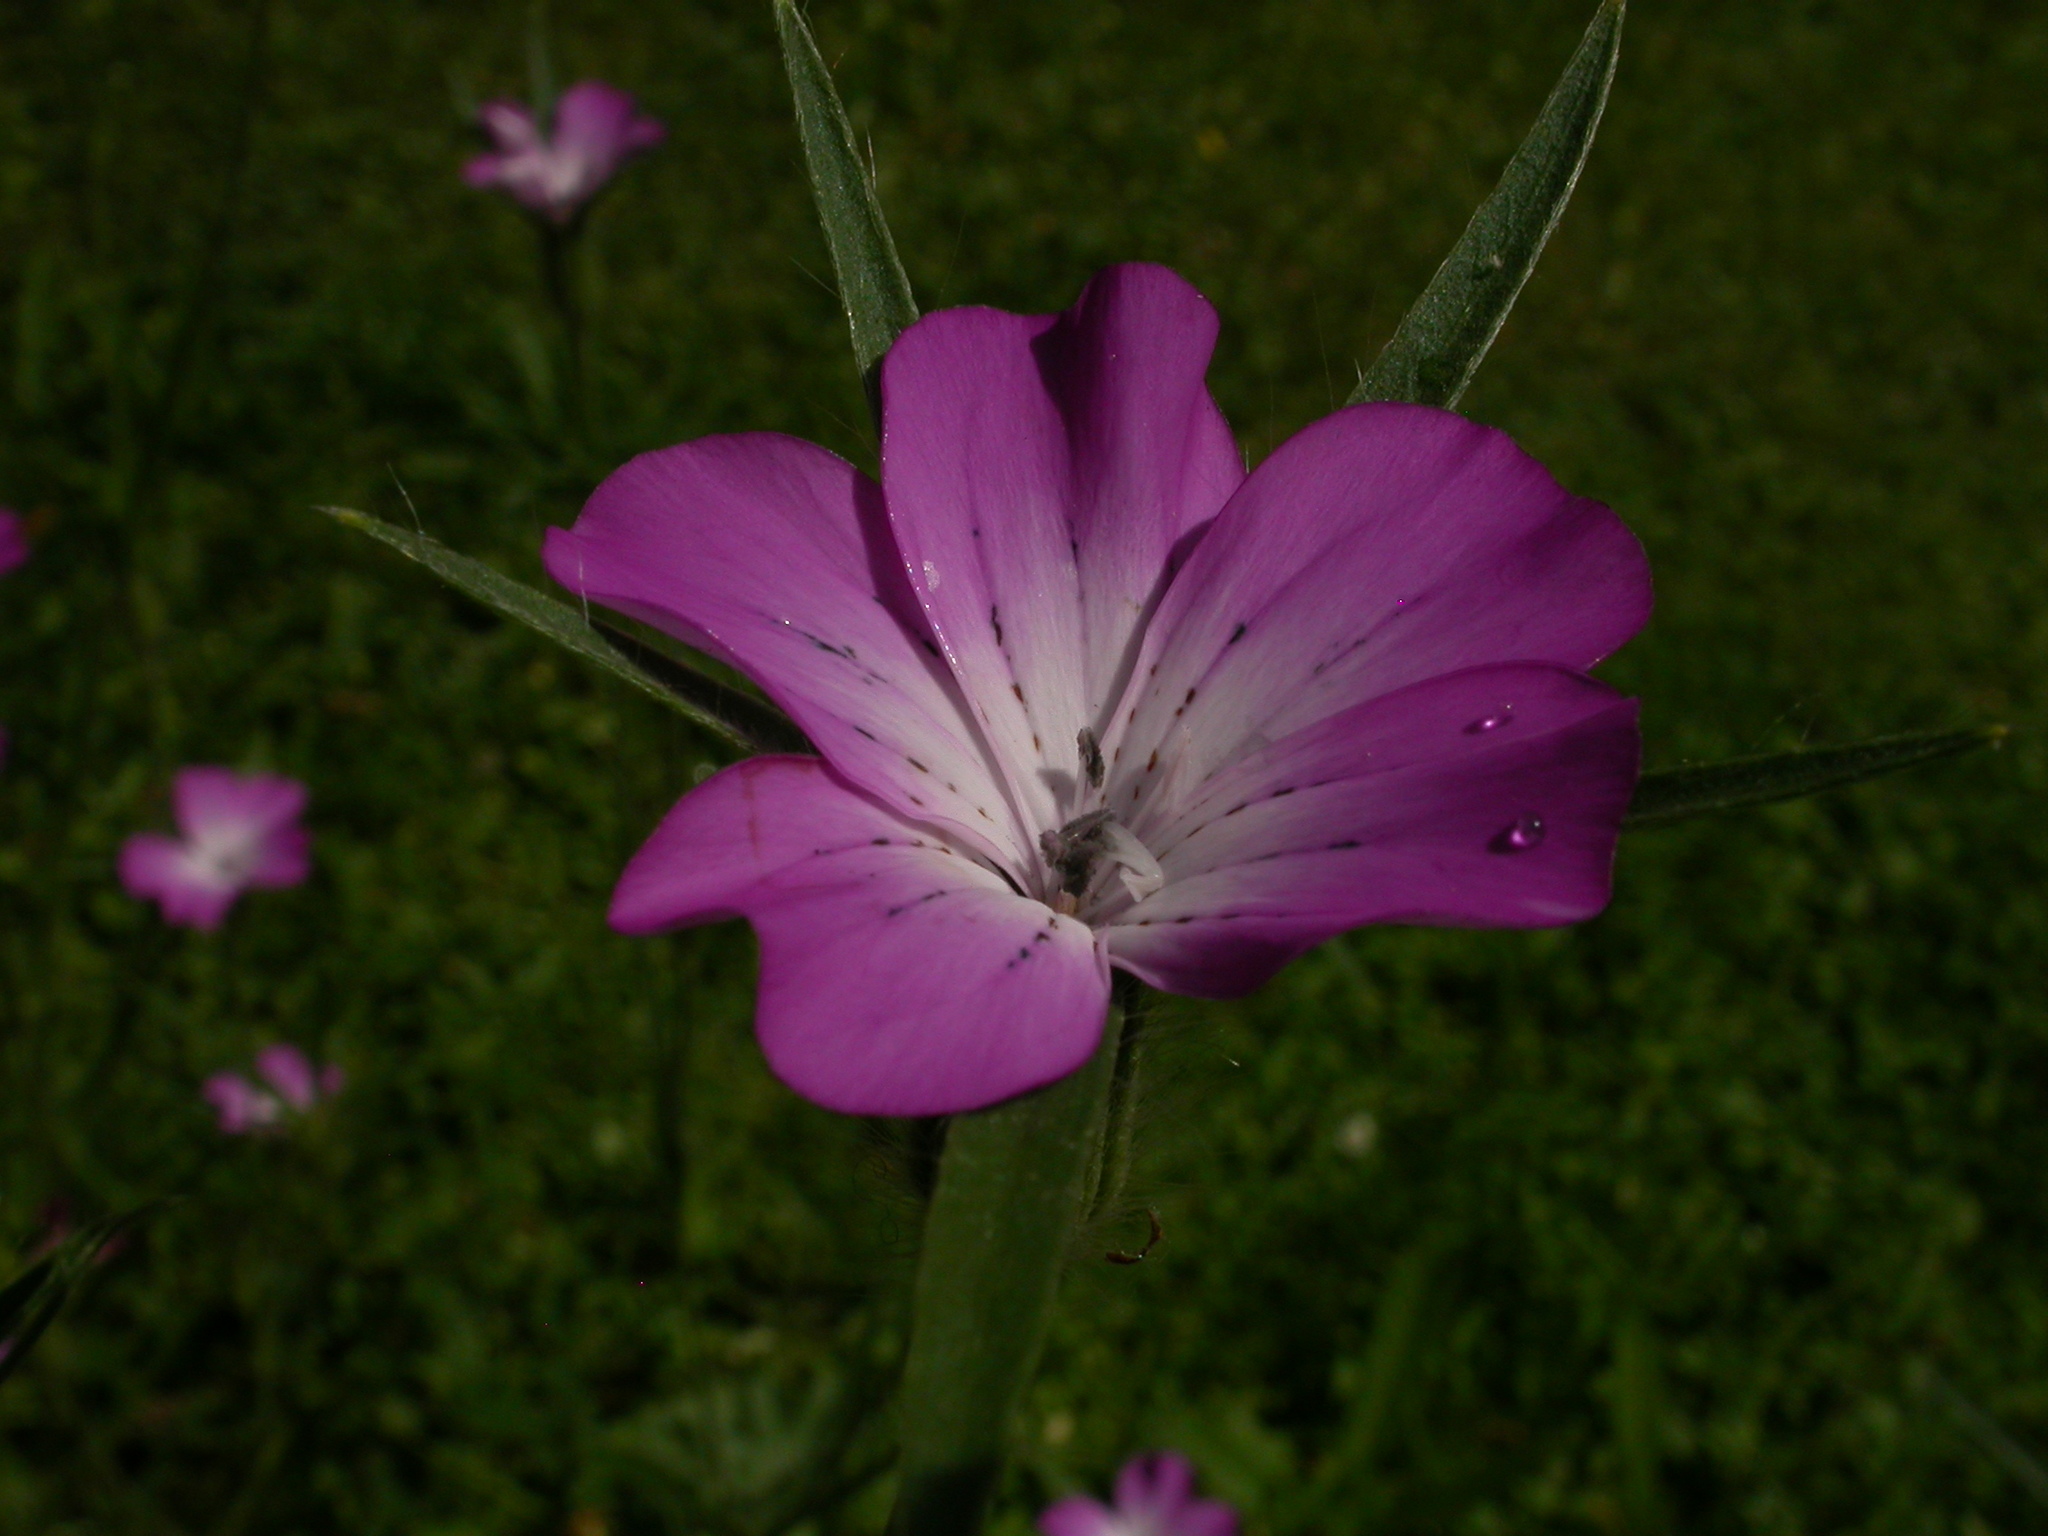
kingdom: Plantae
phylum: Tracheophyta
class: Magnoliopsida
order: Caryophyllales
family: Caryophyllaceae
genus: Agrostemma
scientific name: Agrostemma githago
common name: Common corncockle
